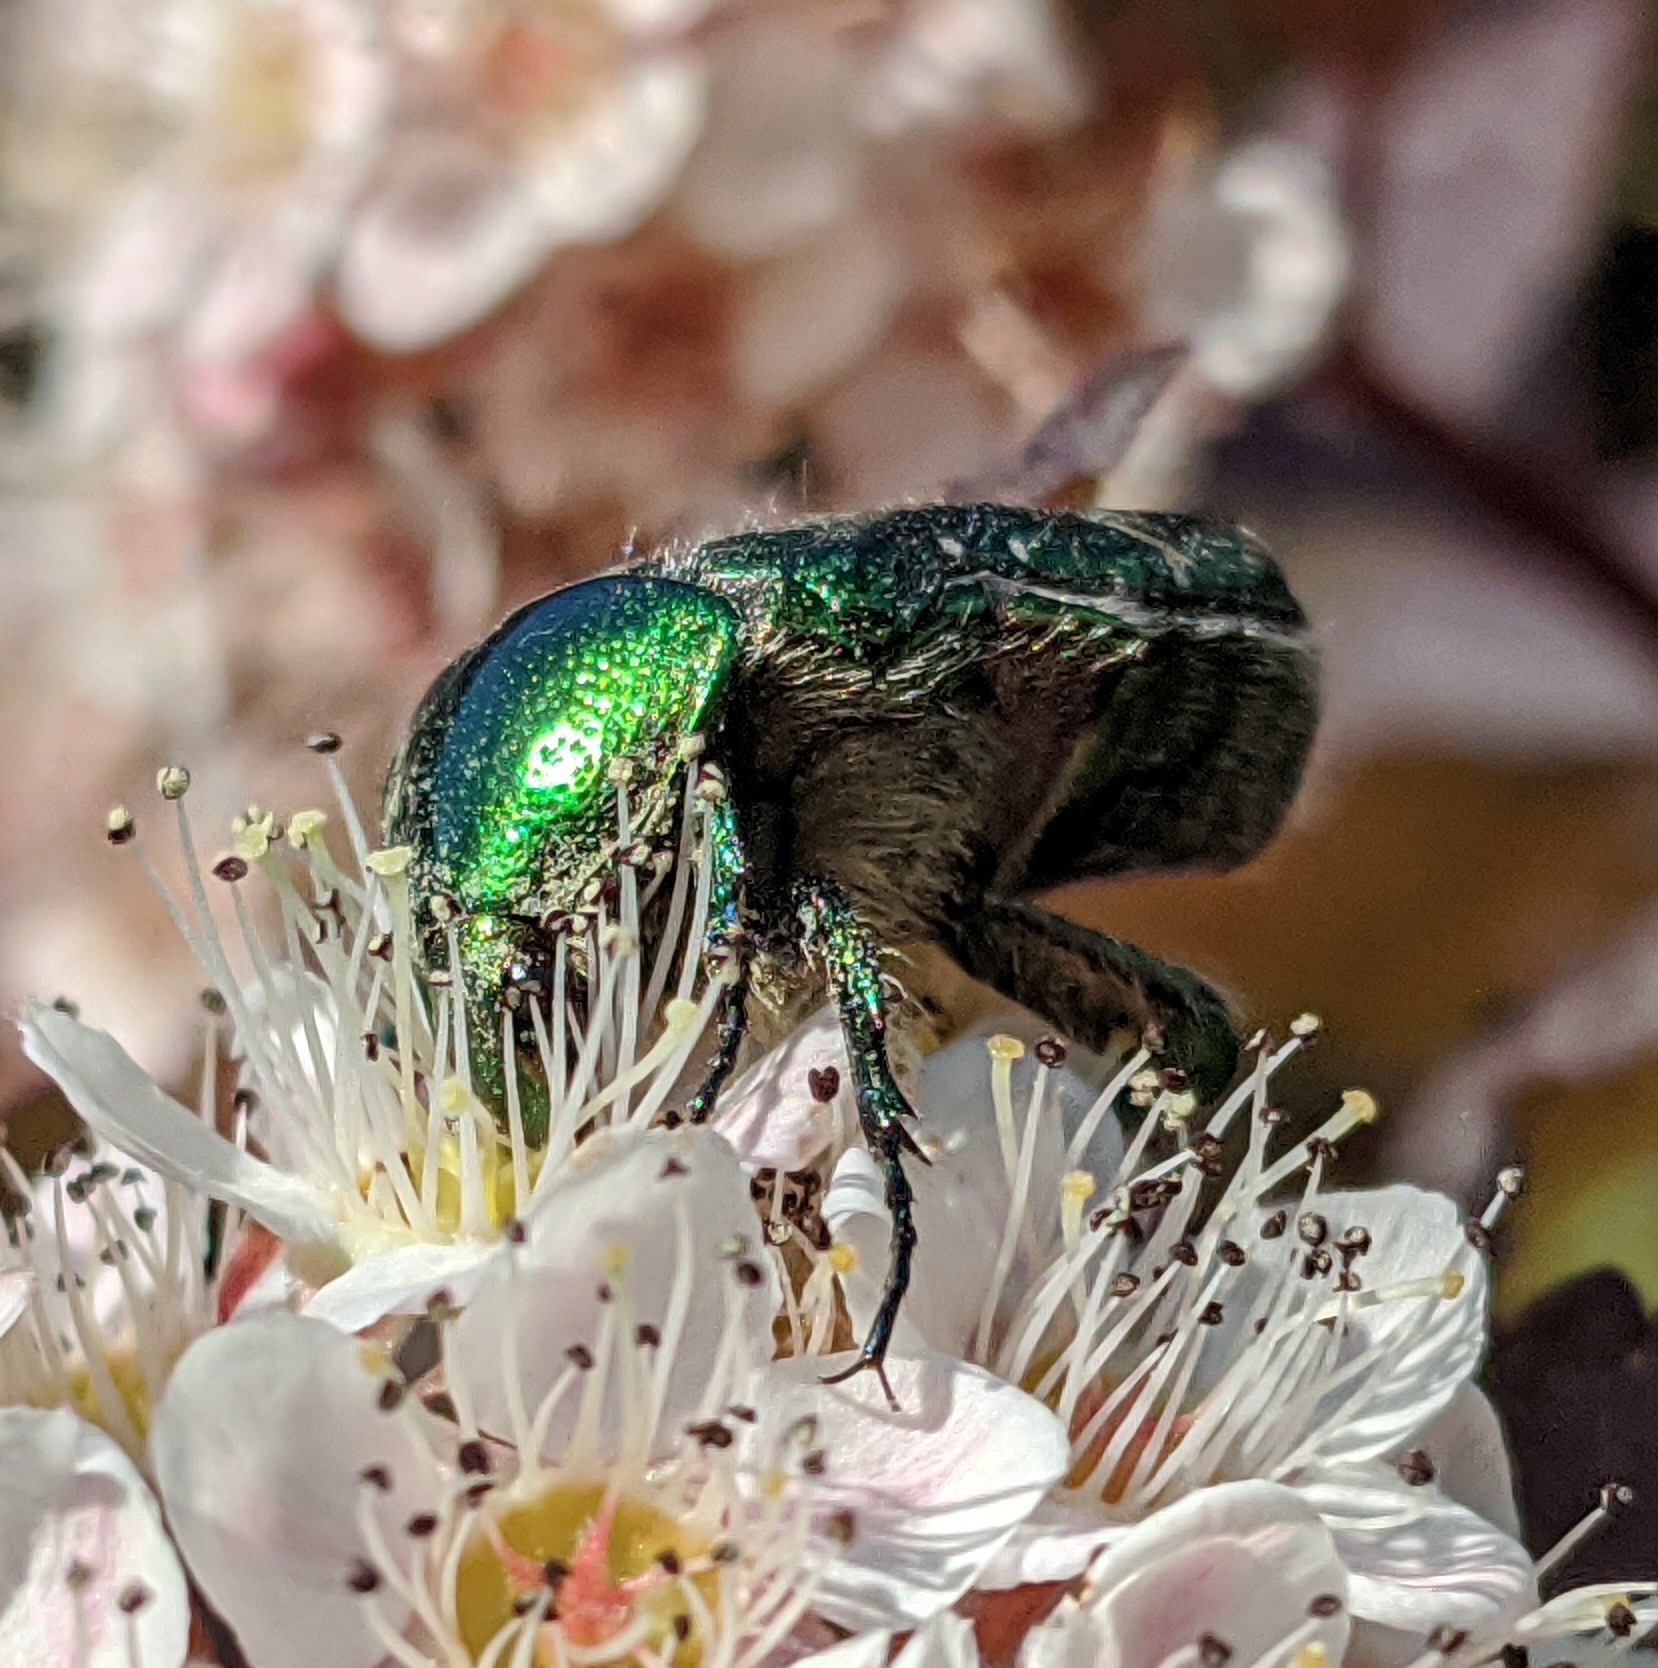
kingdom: Animalia
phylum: Arthropoda
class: Insecta
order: Coleoptera
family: Scarabaeidae
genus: Cetonia
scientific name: Cetonia aurata
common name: Rose chafer
